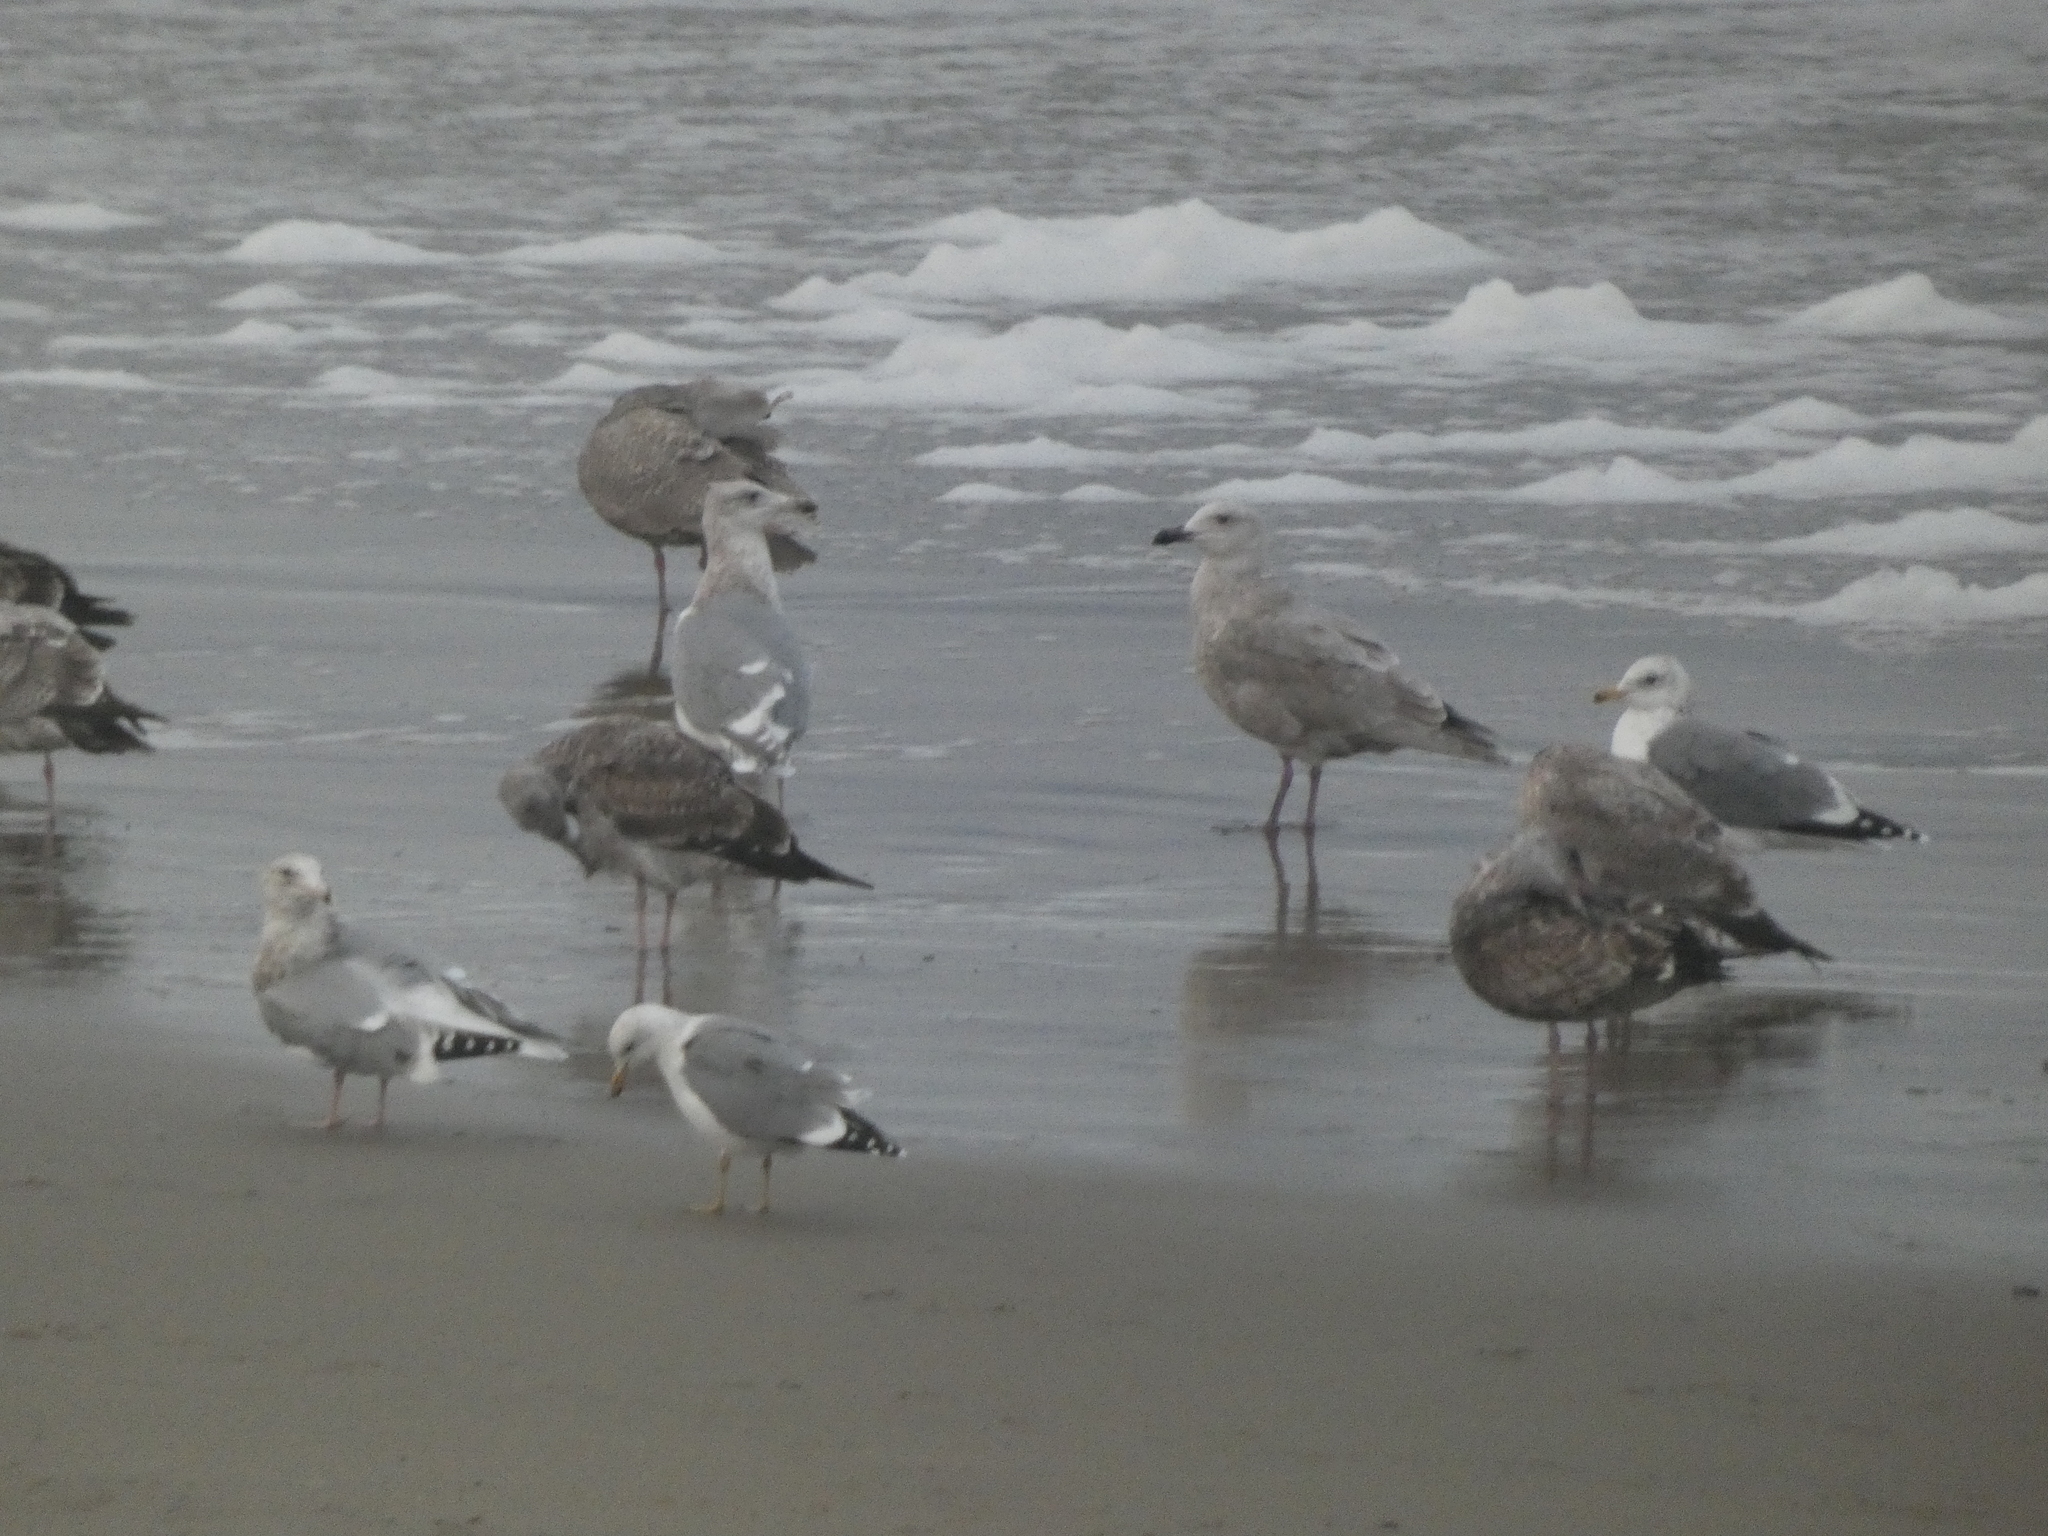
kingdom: Animalia
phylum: Chordata
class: Aves
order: Charadriiformes
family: Laridae
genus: Larus
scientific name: Larus glaucescens
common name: Glaucous-winged gull
